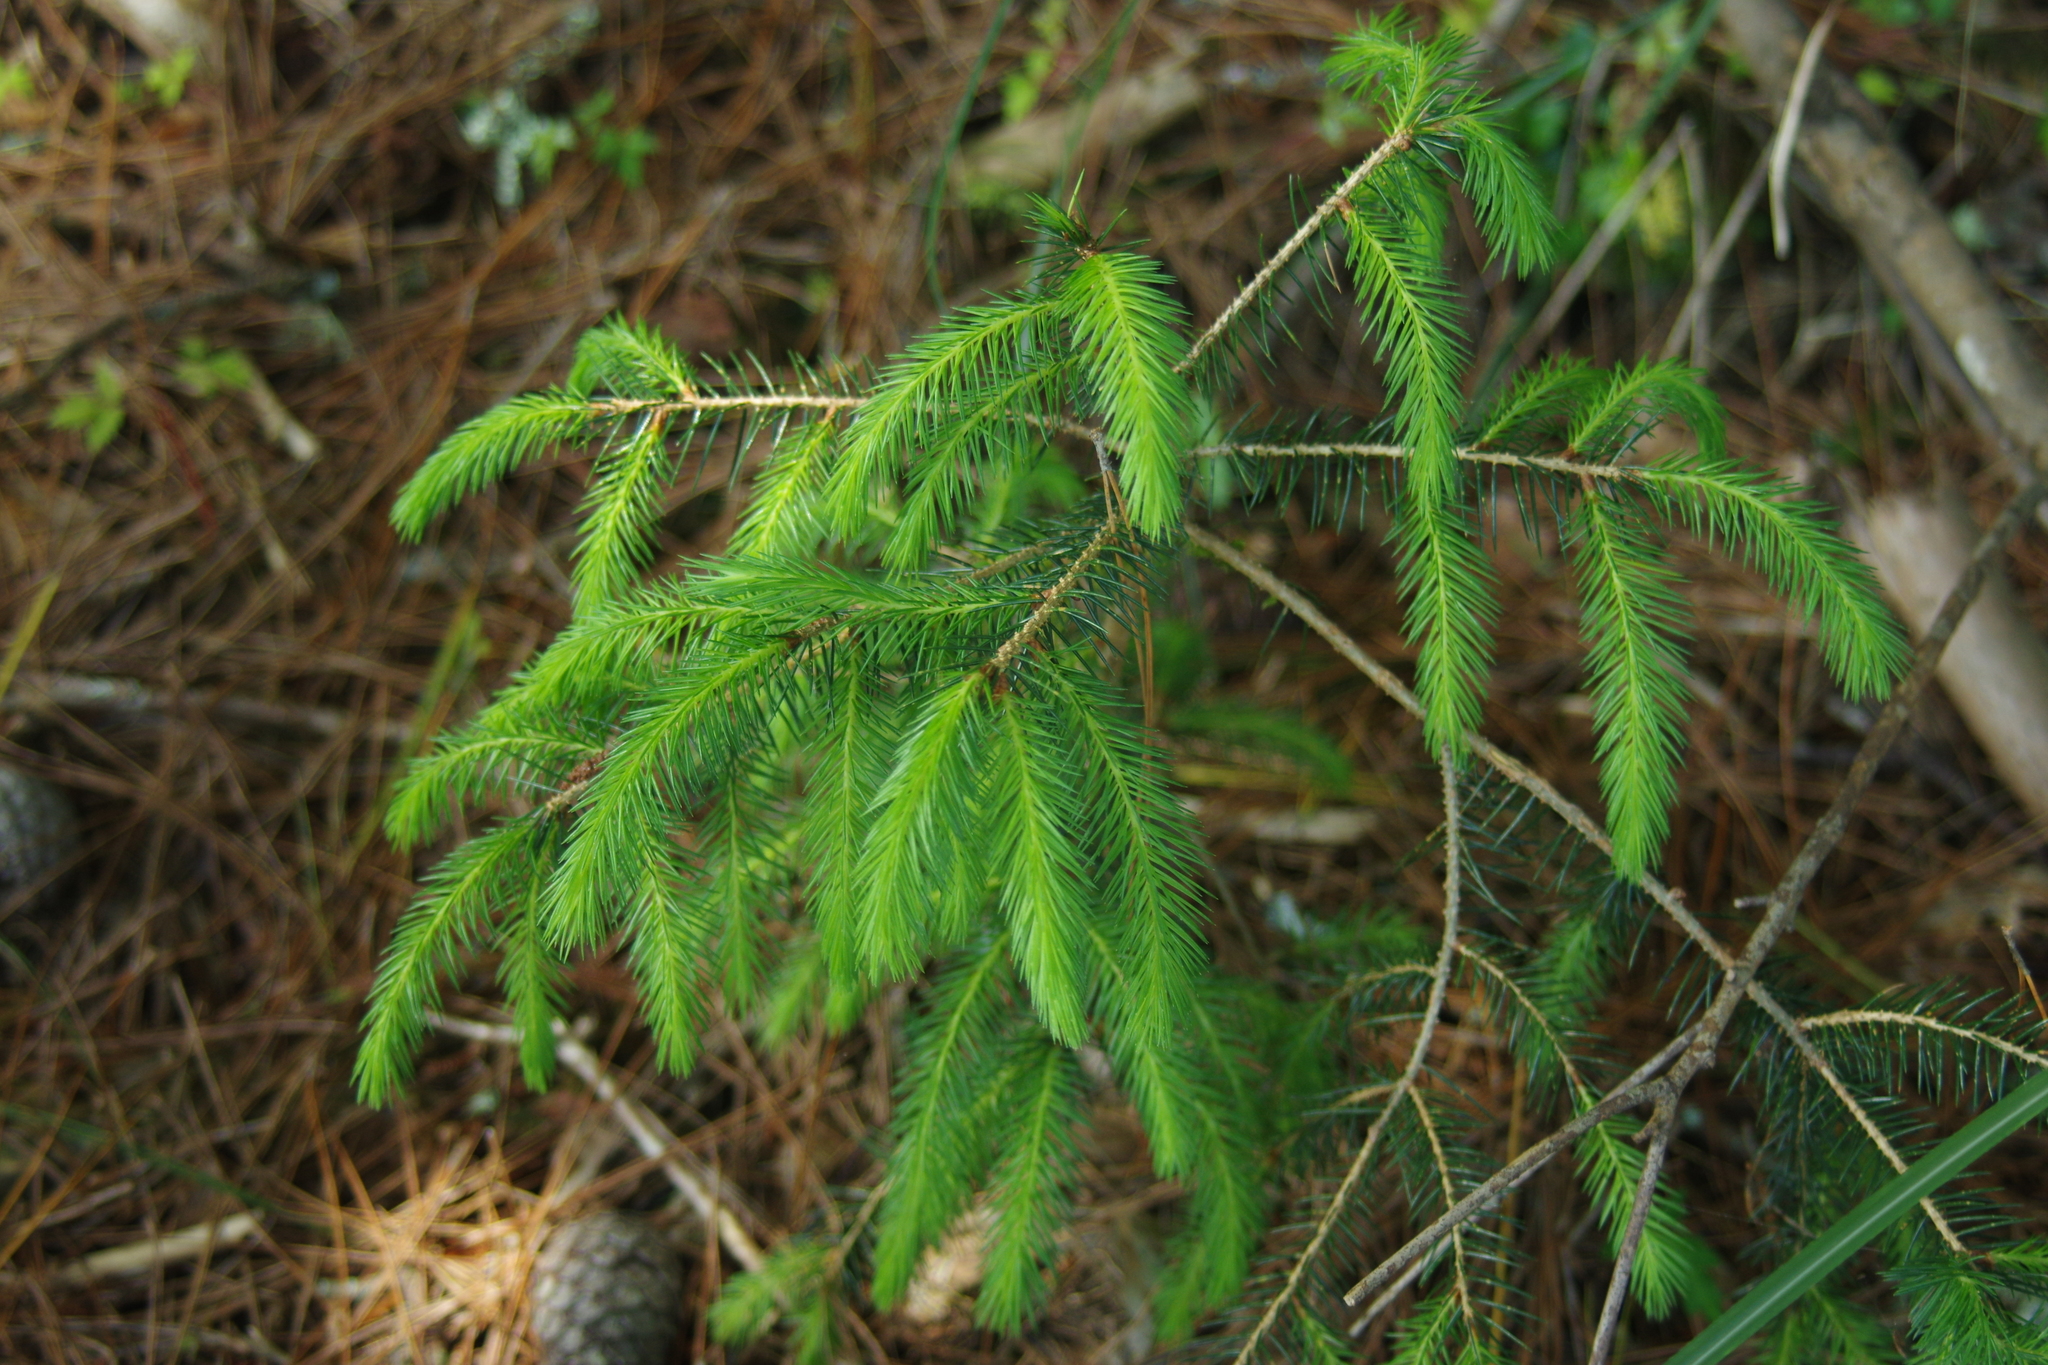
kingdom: Plantae
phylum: Tracheophyta
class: Pinopsida
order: Pinales
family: Pinaceae
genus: Picea
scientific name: Picea morrisonicola
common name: Mount morrison spruce
